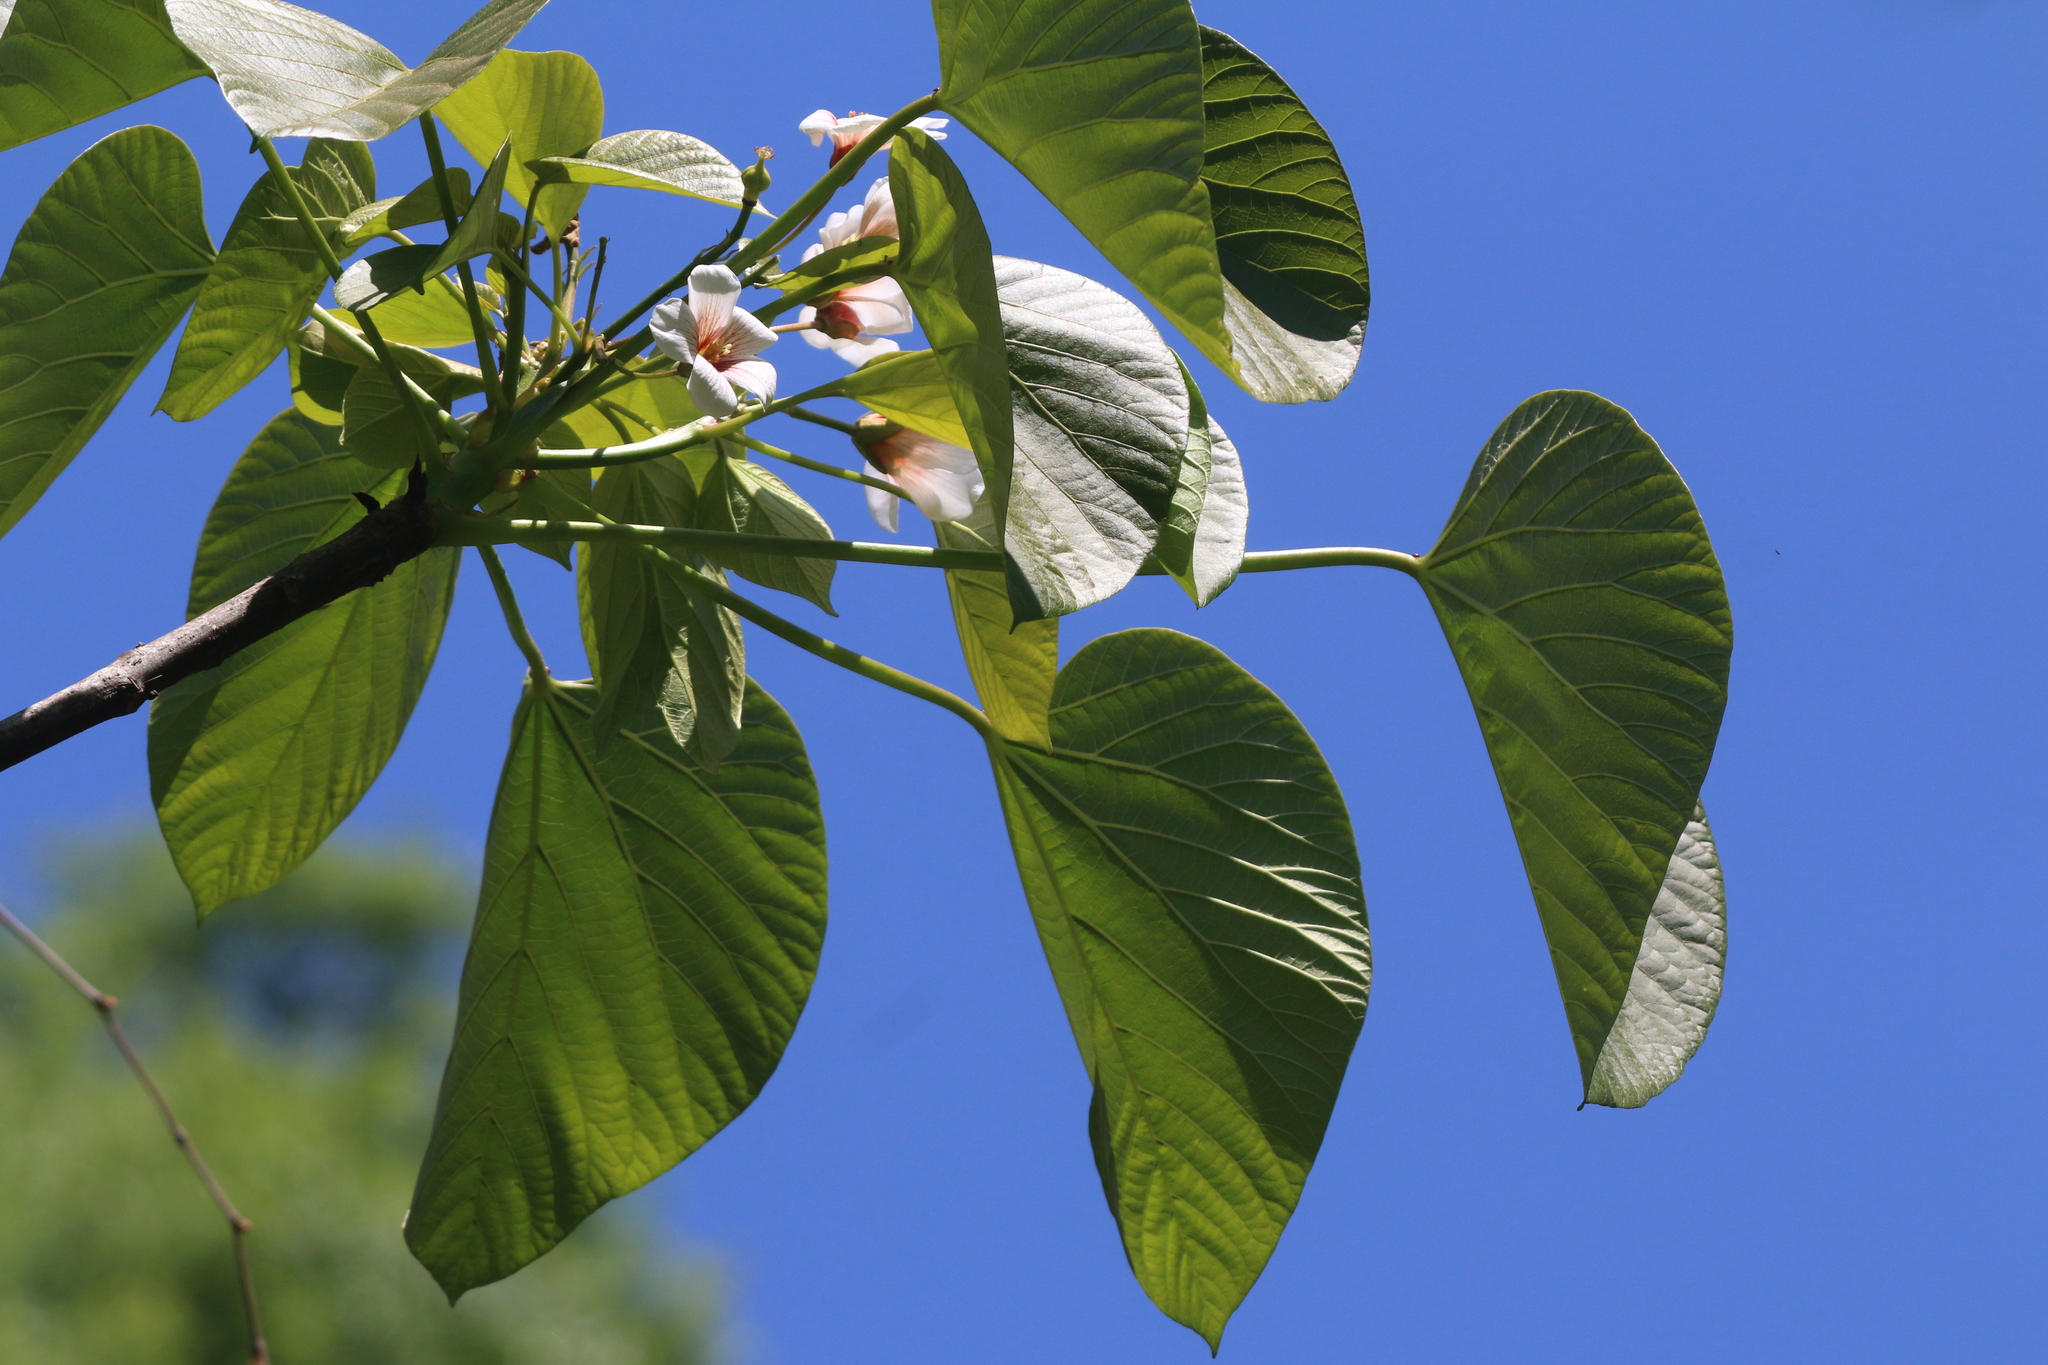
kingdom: Plantae
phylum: Tracheophyta
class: Magnoliopsida
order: Malpighiales
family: Euphorbiaceae
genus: Vernicia
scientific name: Vernicia fordii
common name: Tungoil tree
